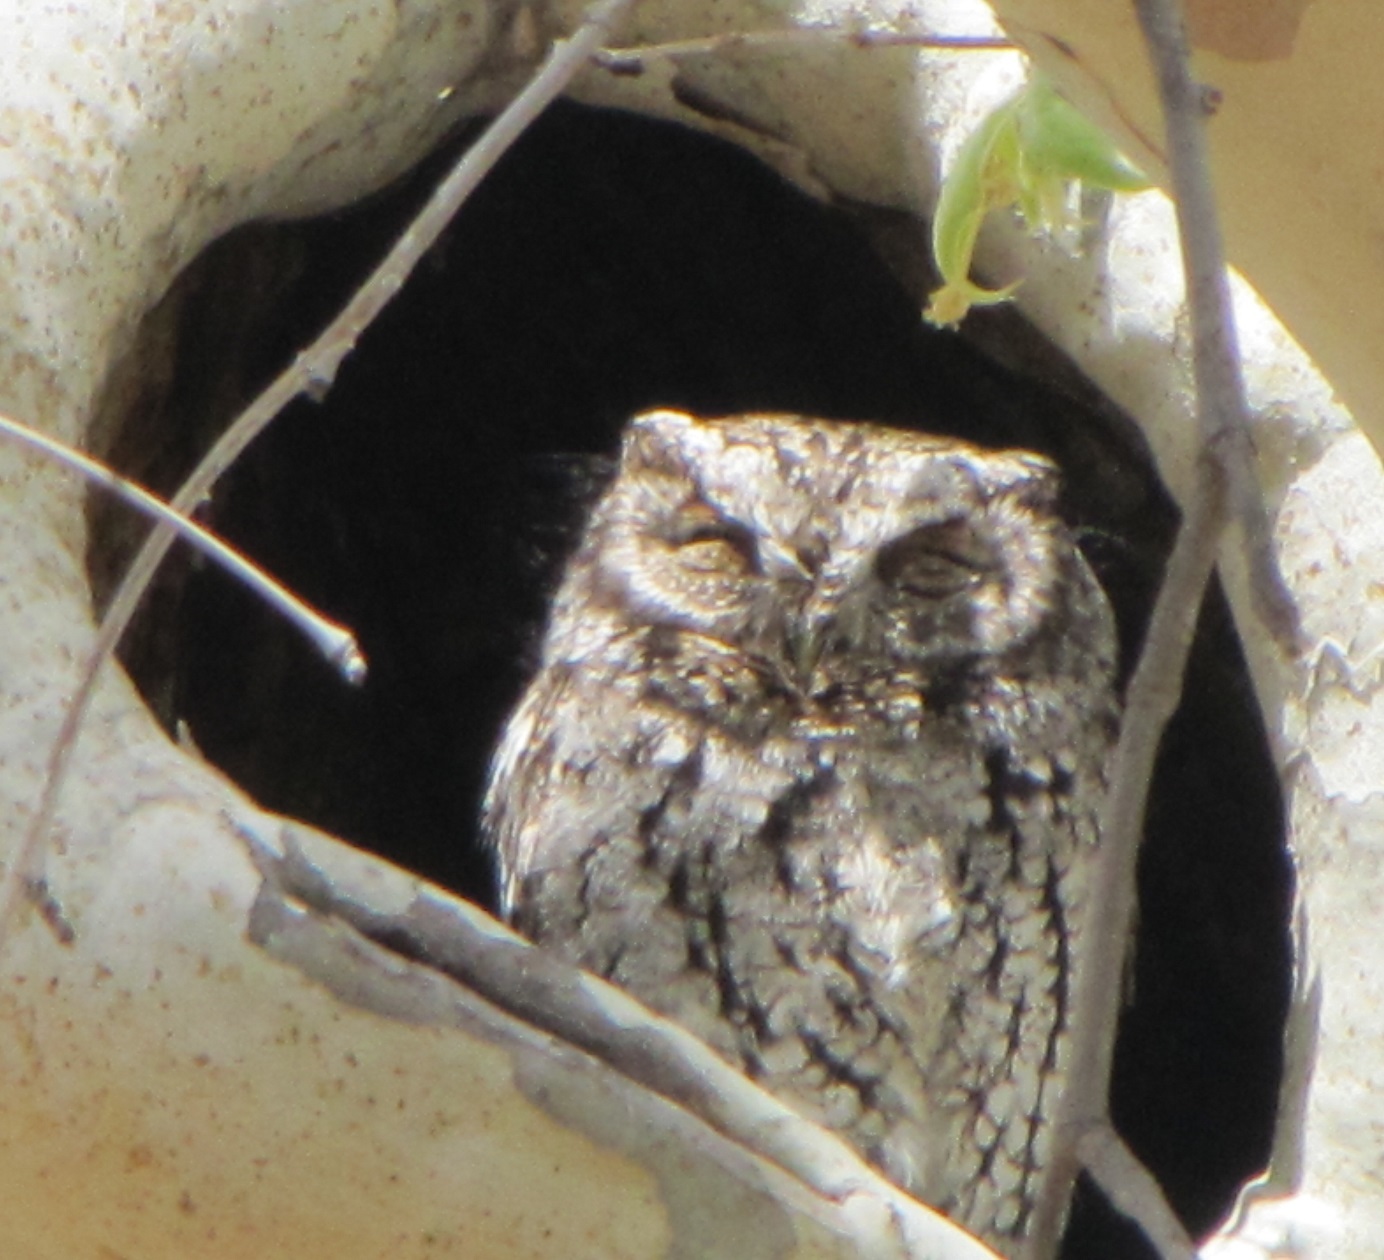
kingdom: Animalia
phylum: Chordata
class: Aves
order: Strigiformes
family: Strigidae
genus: Megascops
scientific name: Megascops trichopsis
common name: Whiskered screech-owl
